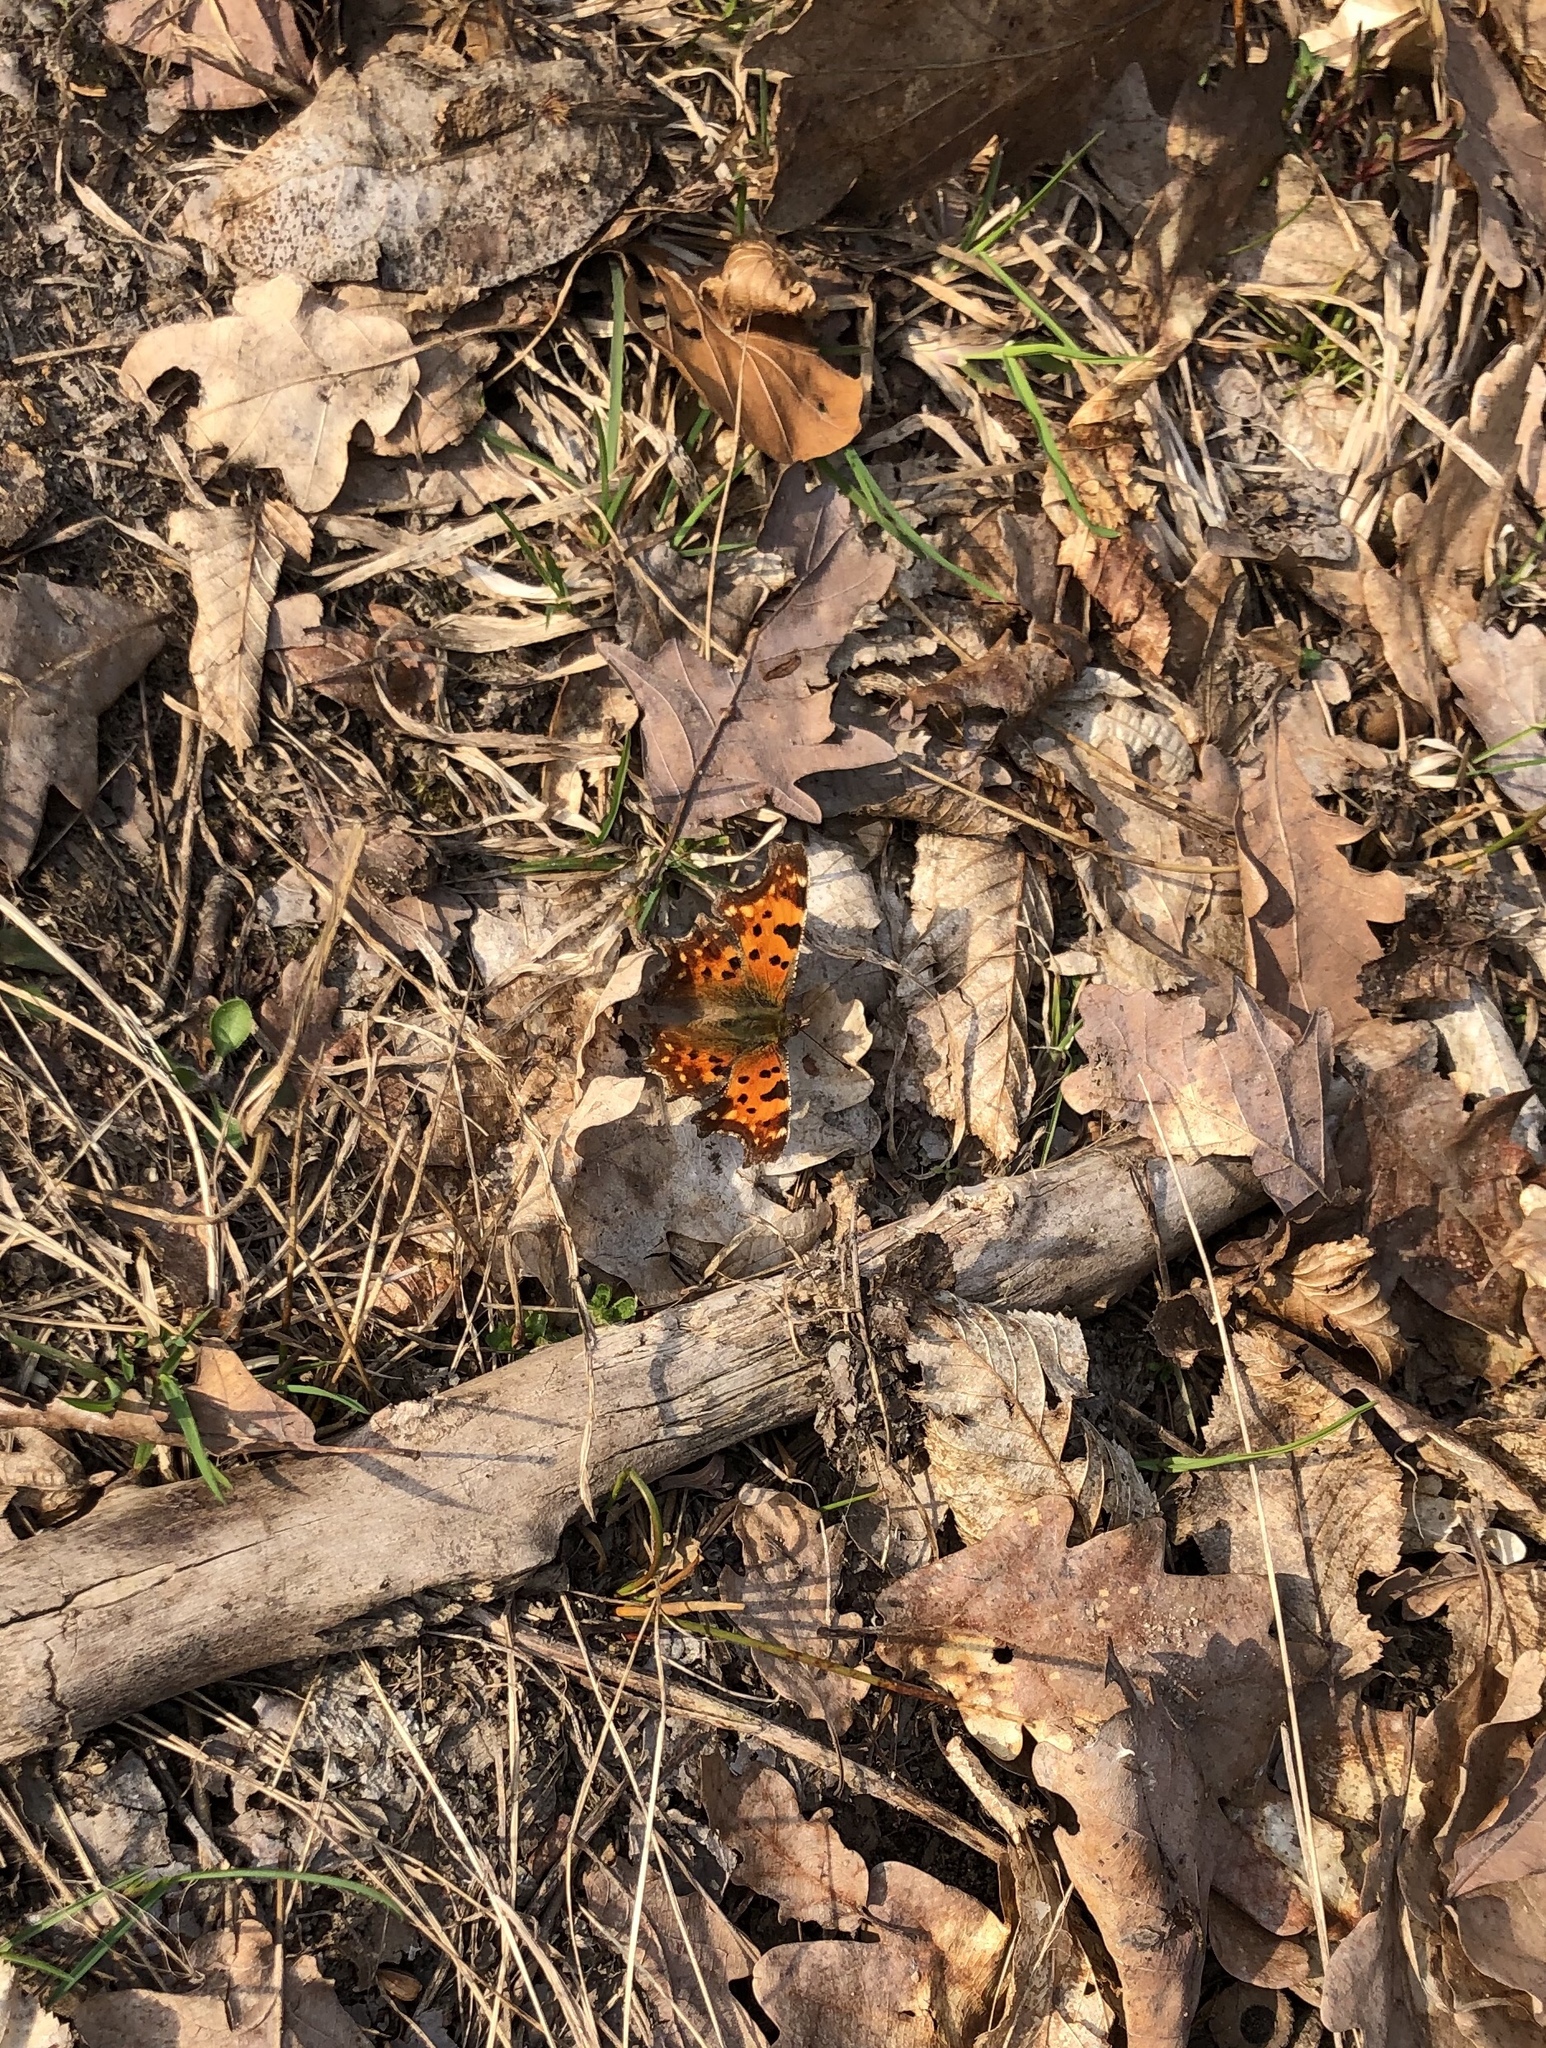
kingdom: Animalia
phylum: Arthropoda
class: Insecta
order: Lepidoptera
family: Nymphalidae
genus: Polygonia
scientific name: Polygonia c-album
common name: Comma
